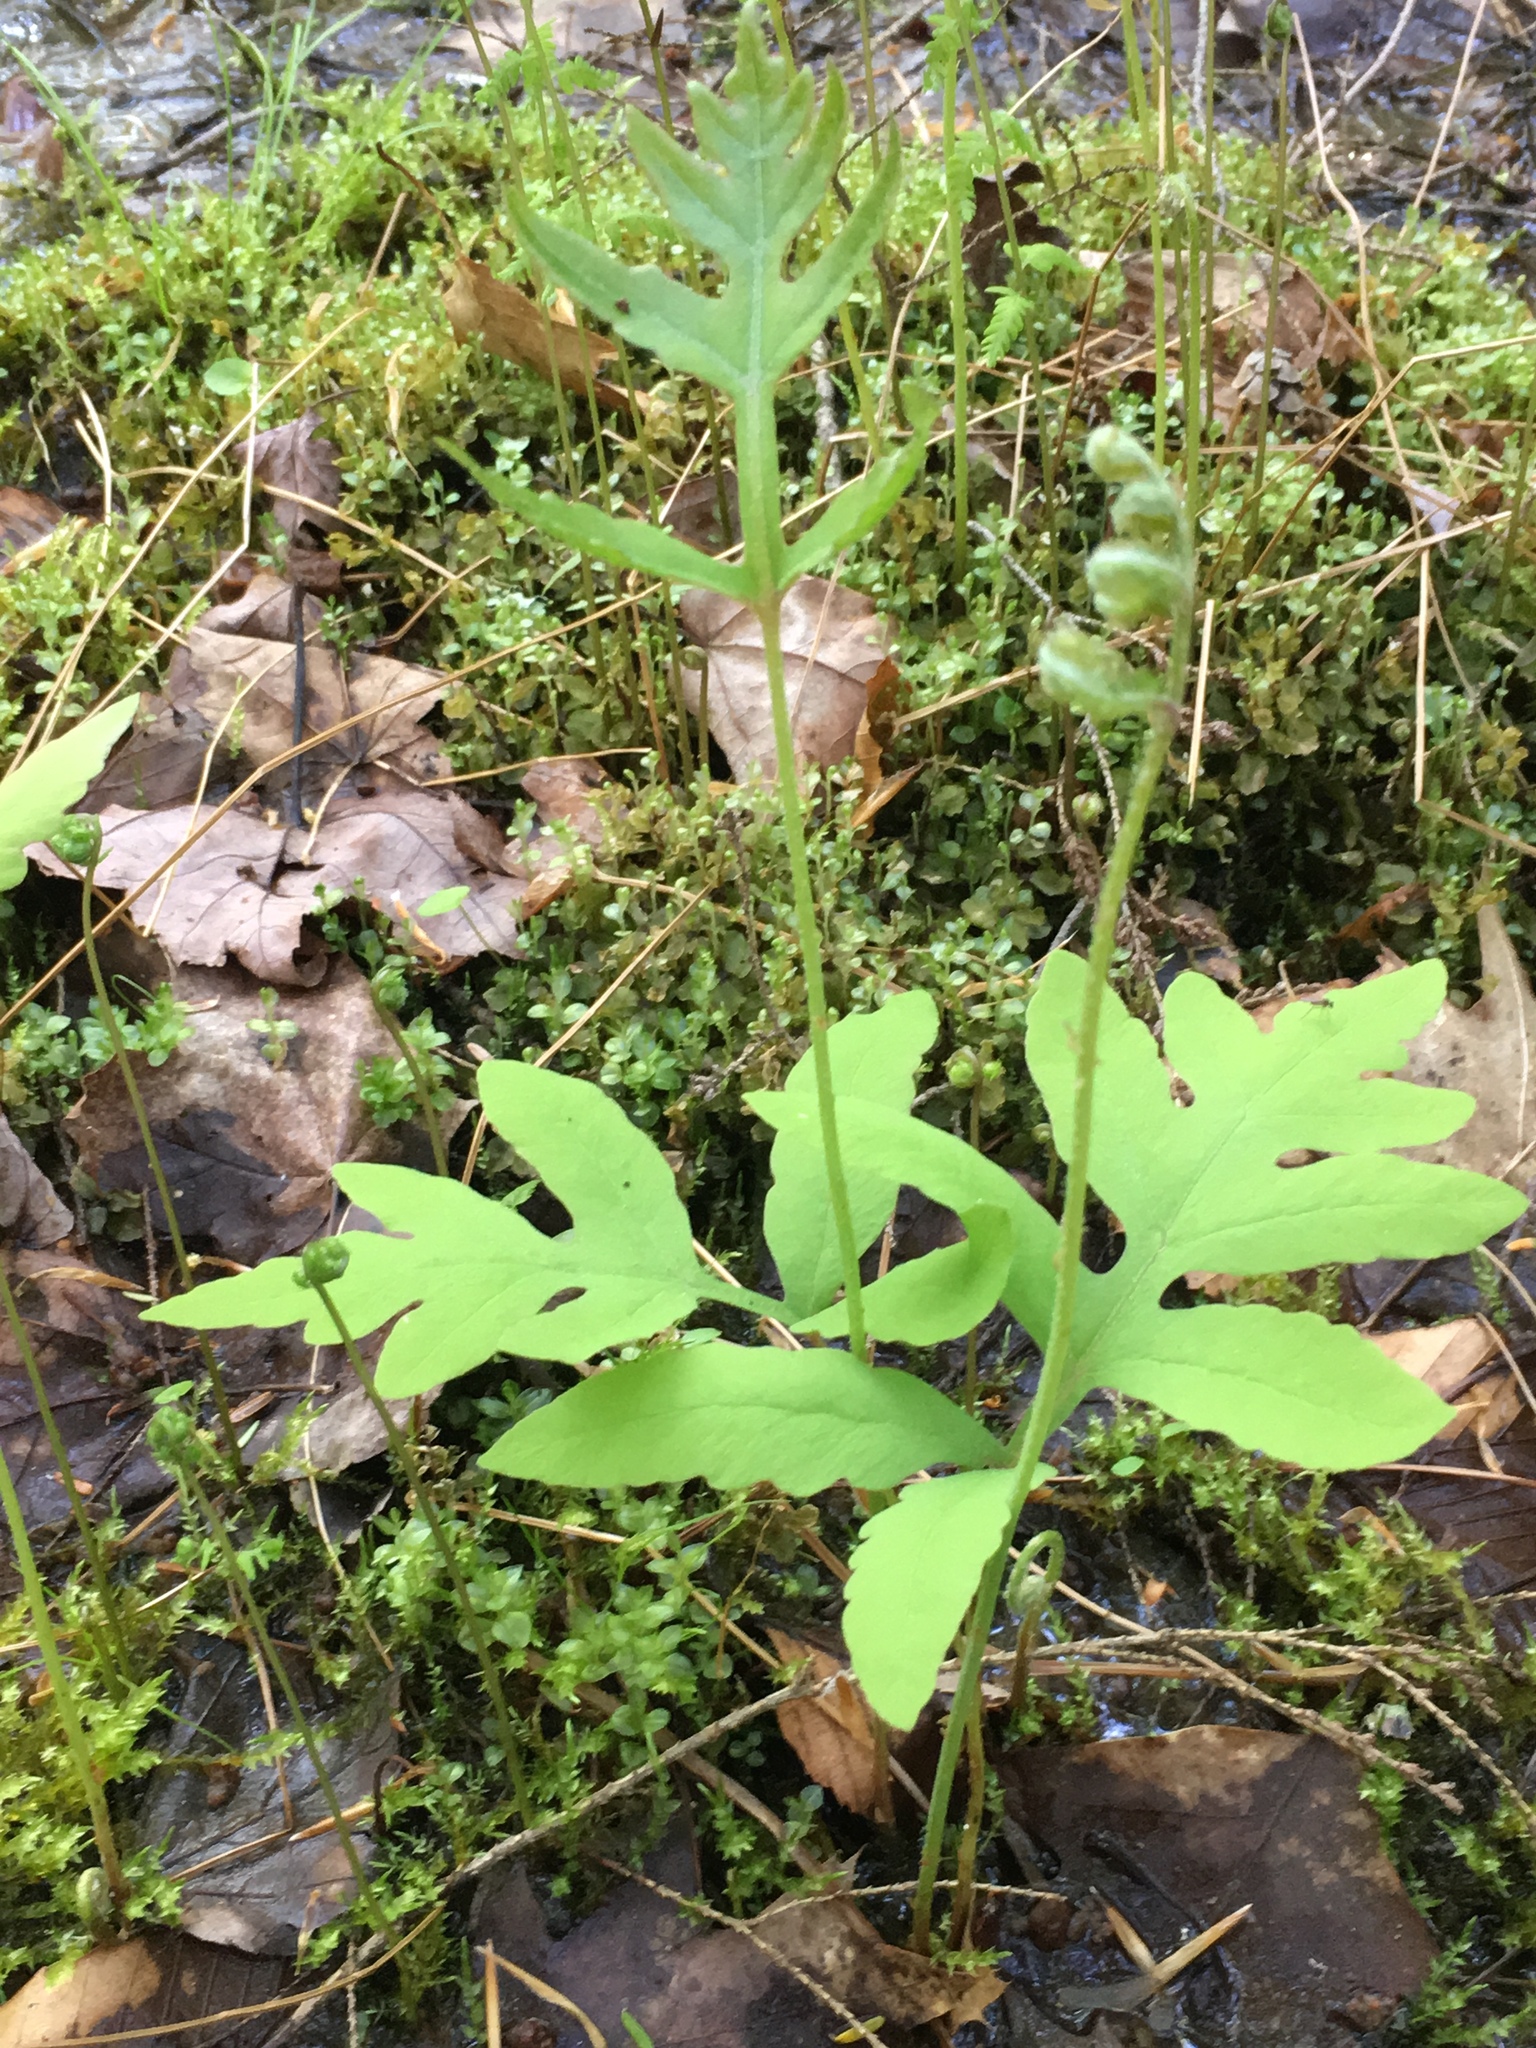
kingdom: Plantae
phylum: Tracheophyta
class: Polypodiopsida
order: Polypodiales
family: Onocleaceae
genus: Onoclea
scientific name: Onoclea sensibilis
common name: Sensitive fern
